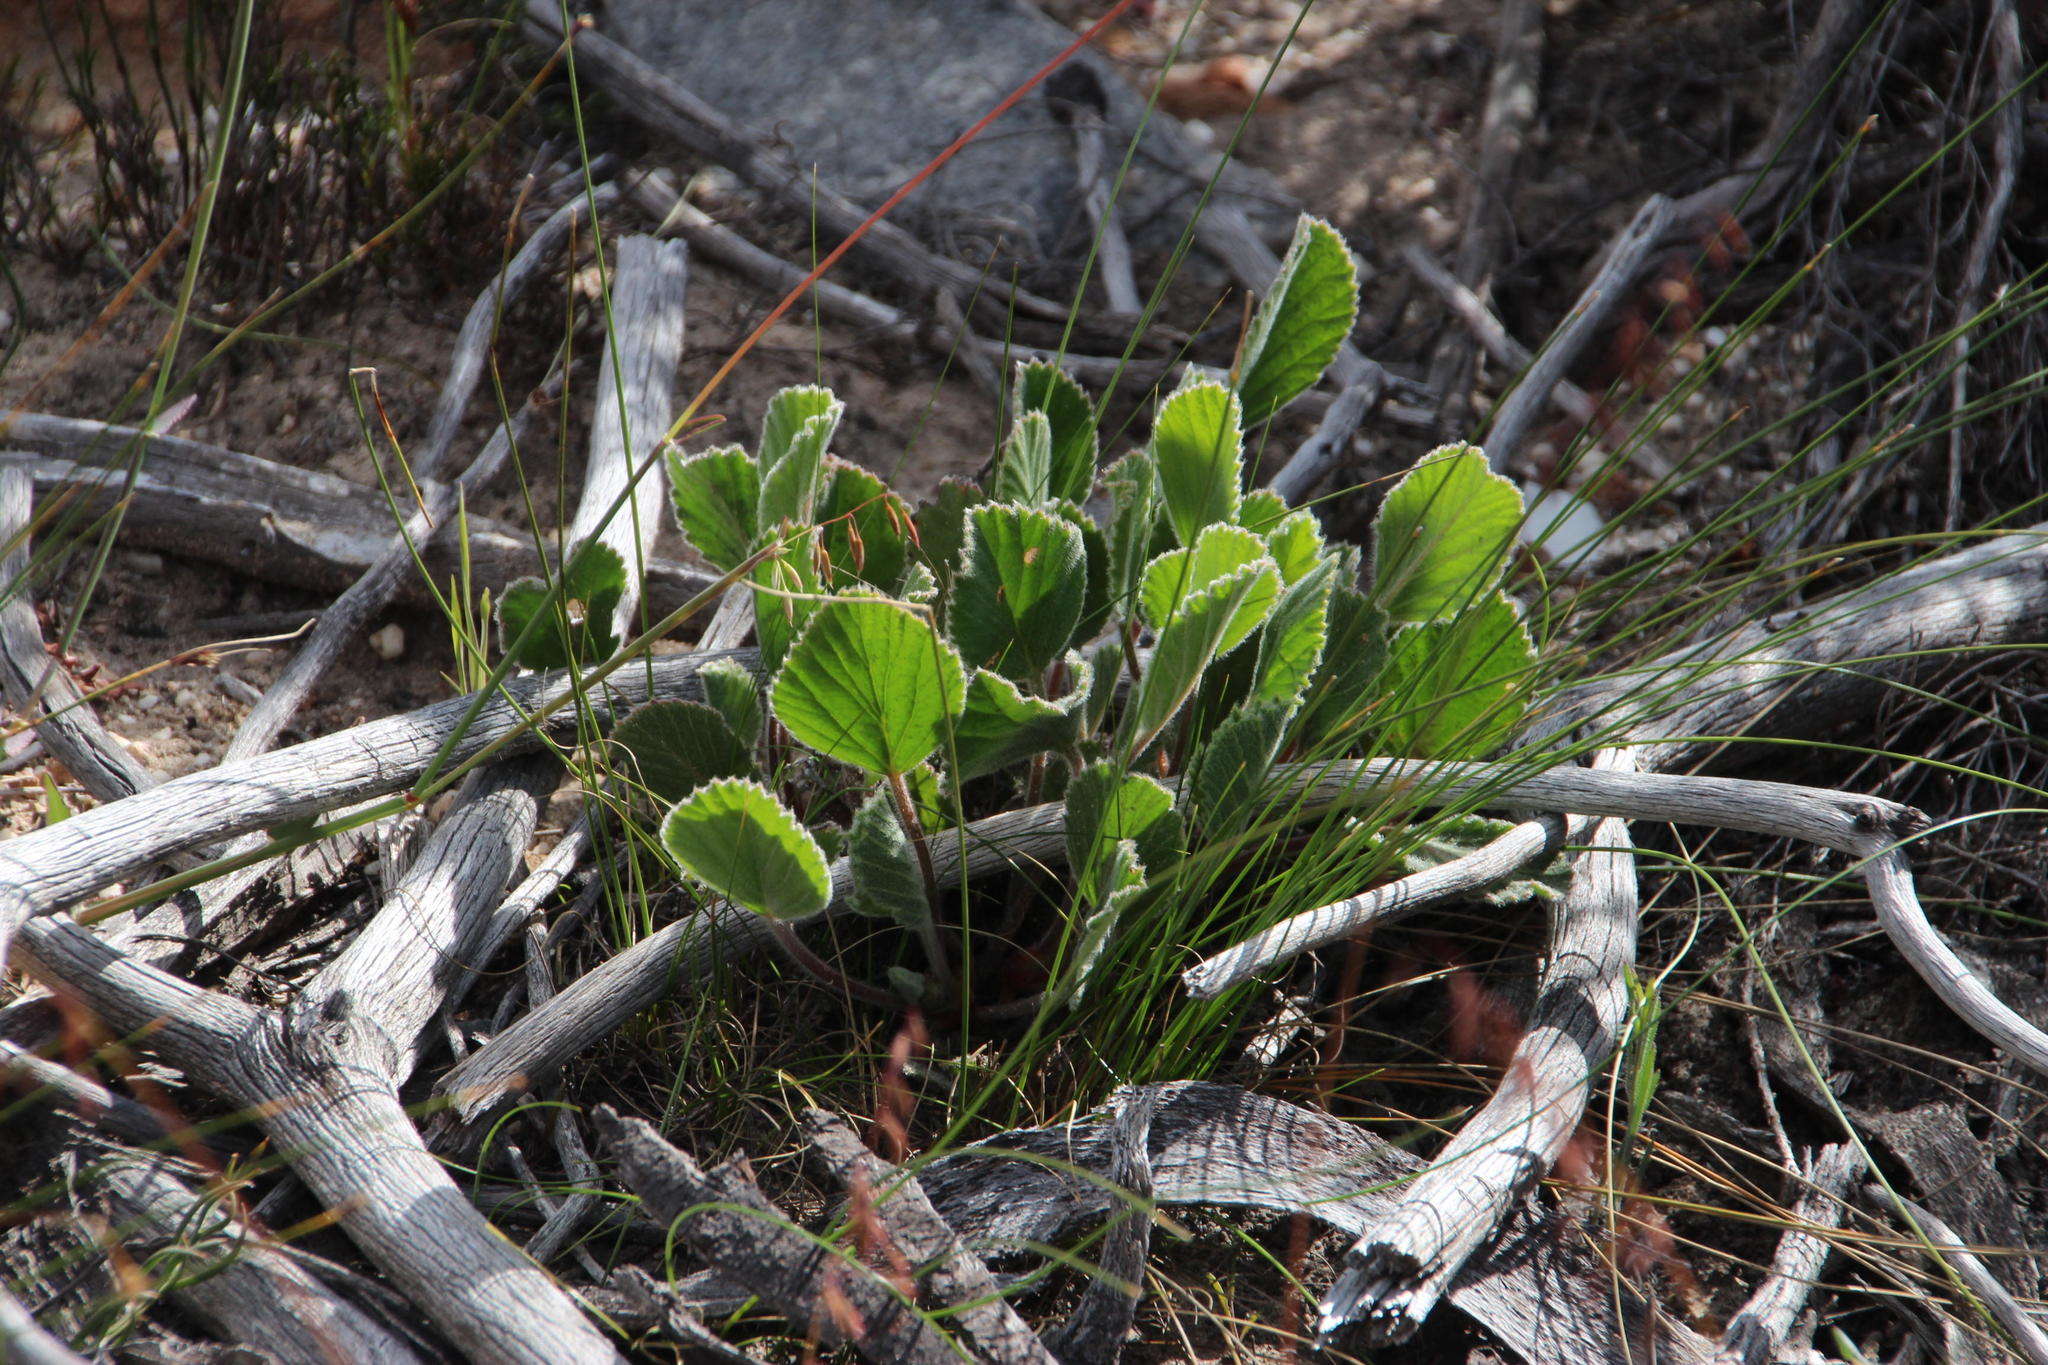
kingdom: Plantae
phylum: Tracheophyta
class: Magnoliopsida
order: Geraniales
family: Geraniaceae
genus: Pelargonium
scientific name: Pelargonium ovale
